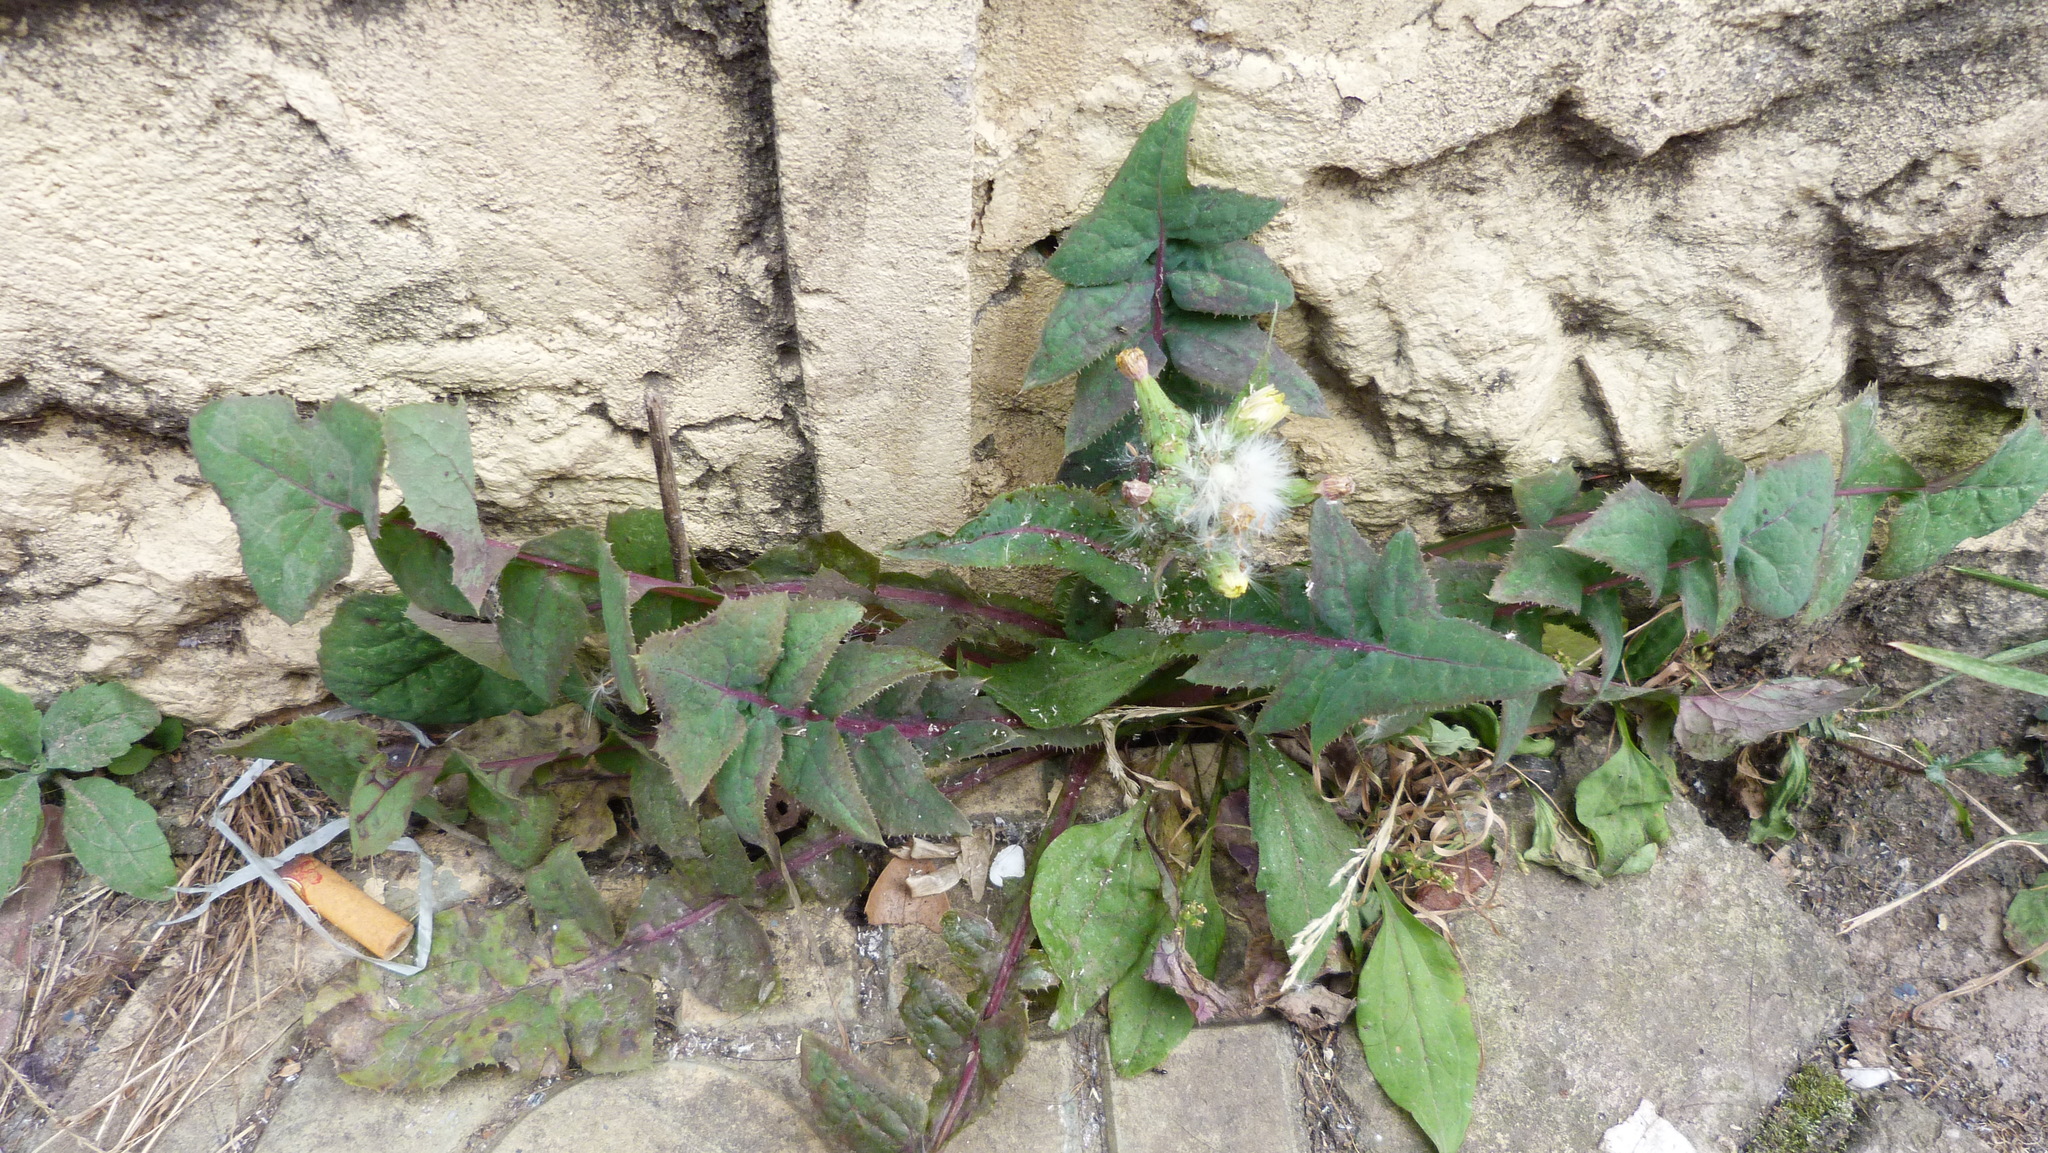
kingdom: Plantae
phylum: Tracheophyta
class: Magnoliopsida
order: Asterales
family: Asteraceae
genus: Sonchus
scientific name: Sonchus oleraceus
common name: Common sowthistle
